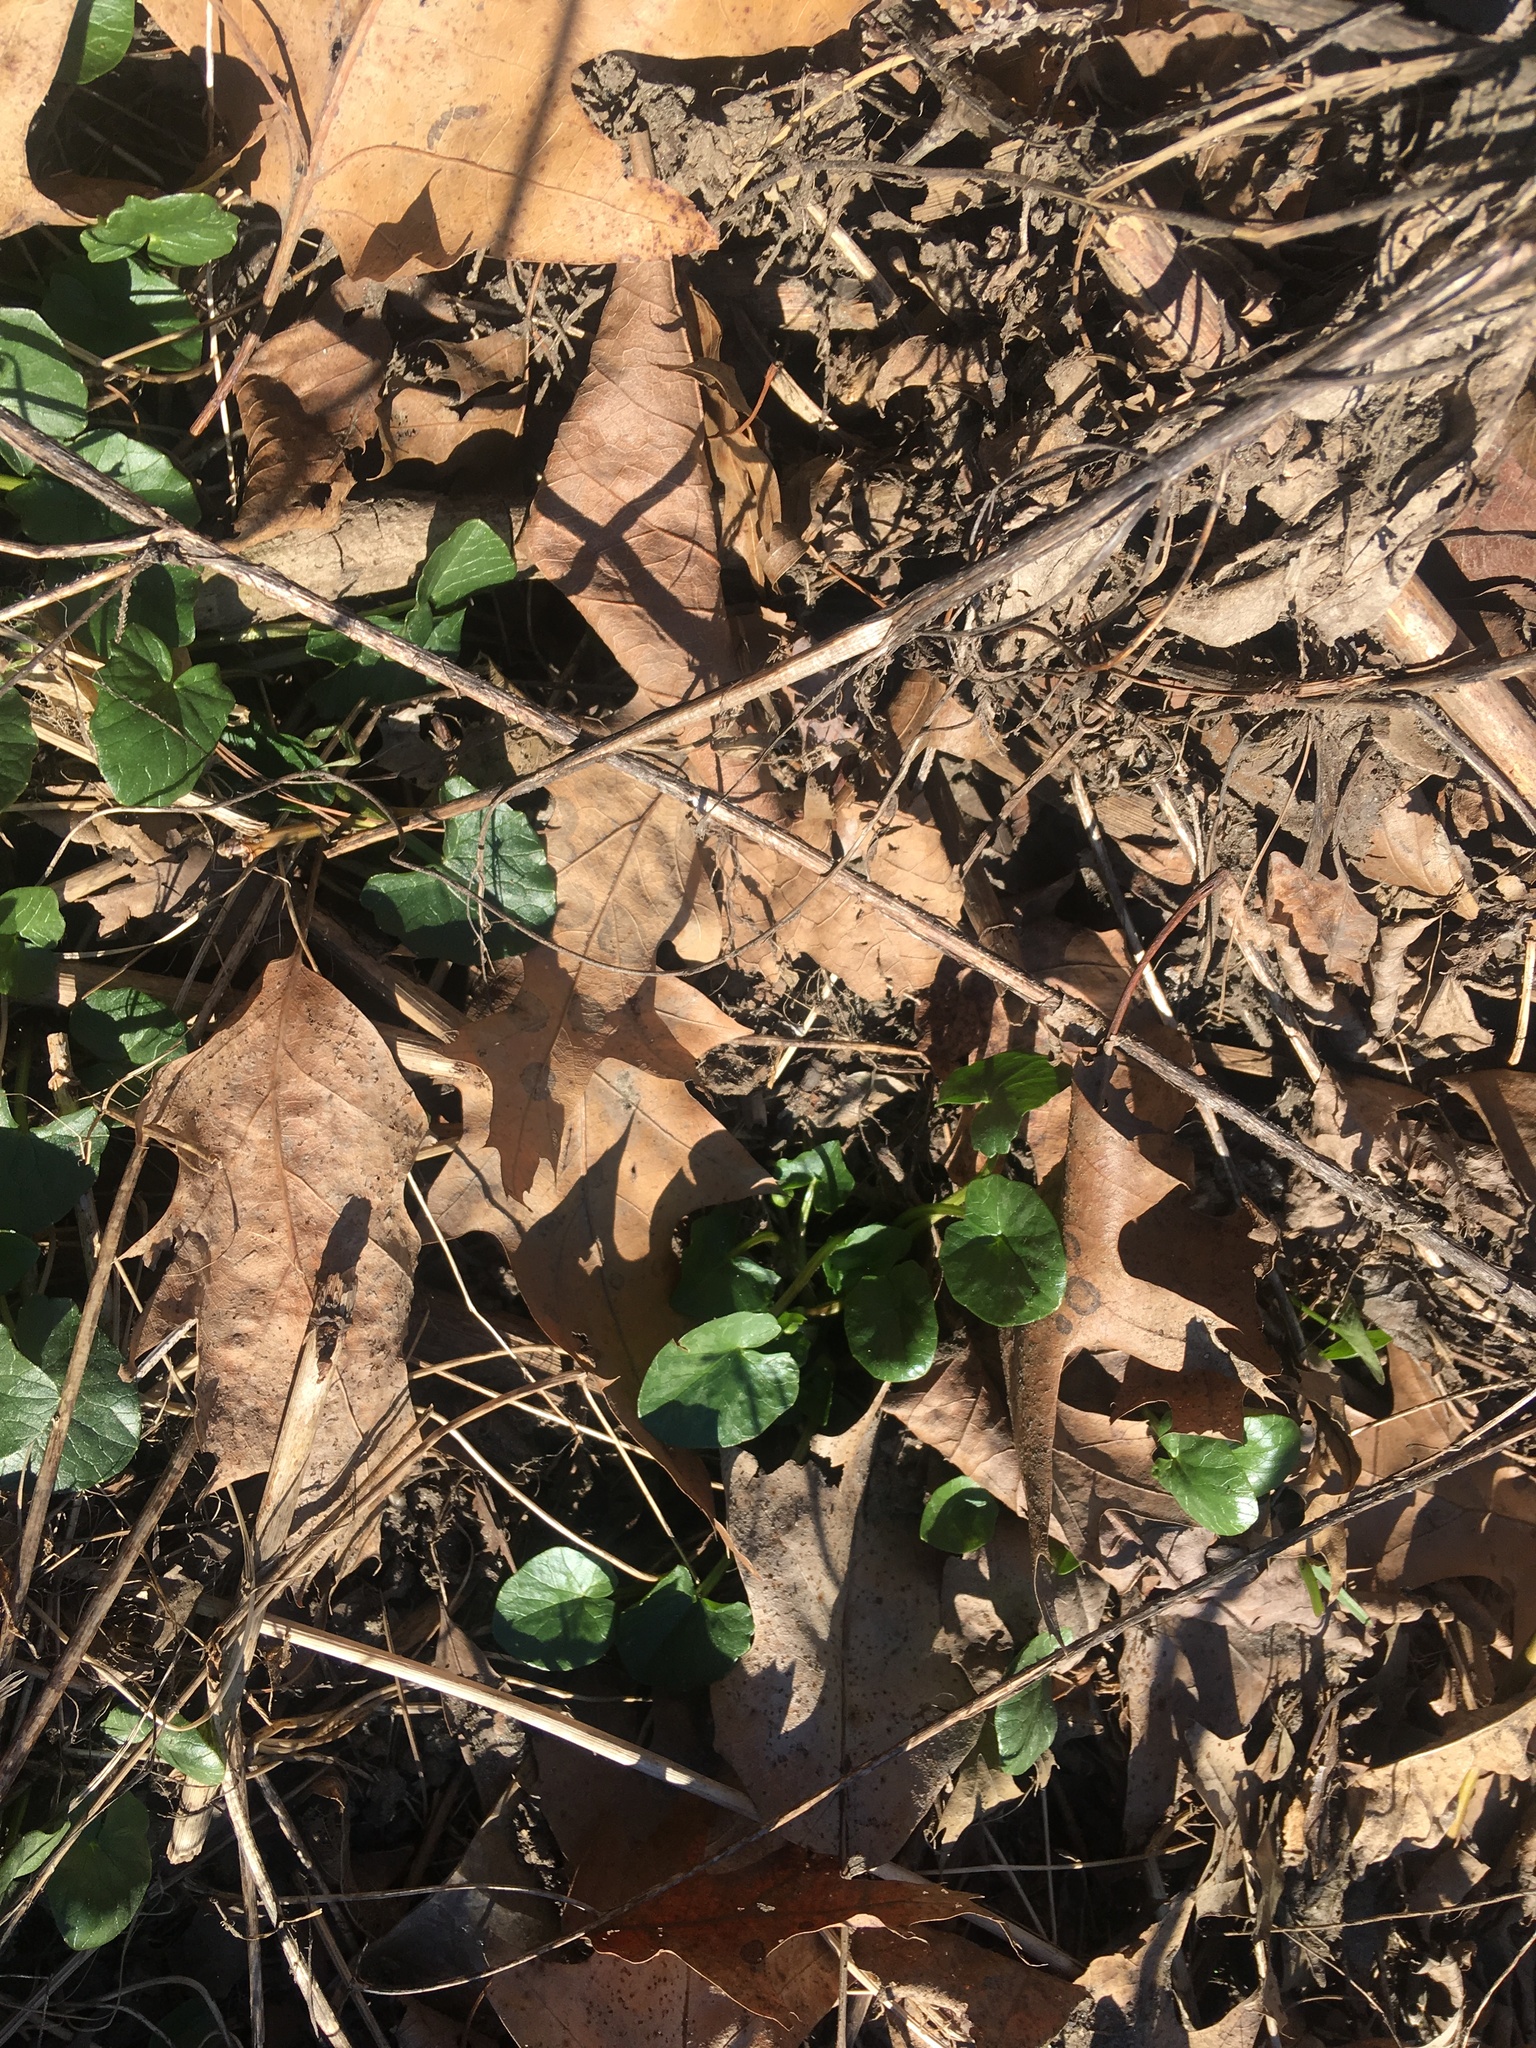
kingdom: Plantae
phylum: Tracheophyta
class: Magnoliopsida
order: Ranunculales
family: Ranunculaceae
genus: Ficaria
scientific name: Ficaria verna
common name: Lesser celandine
